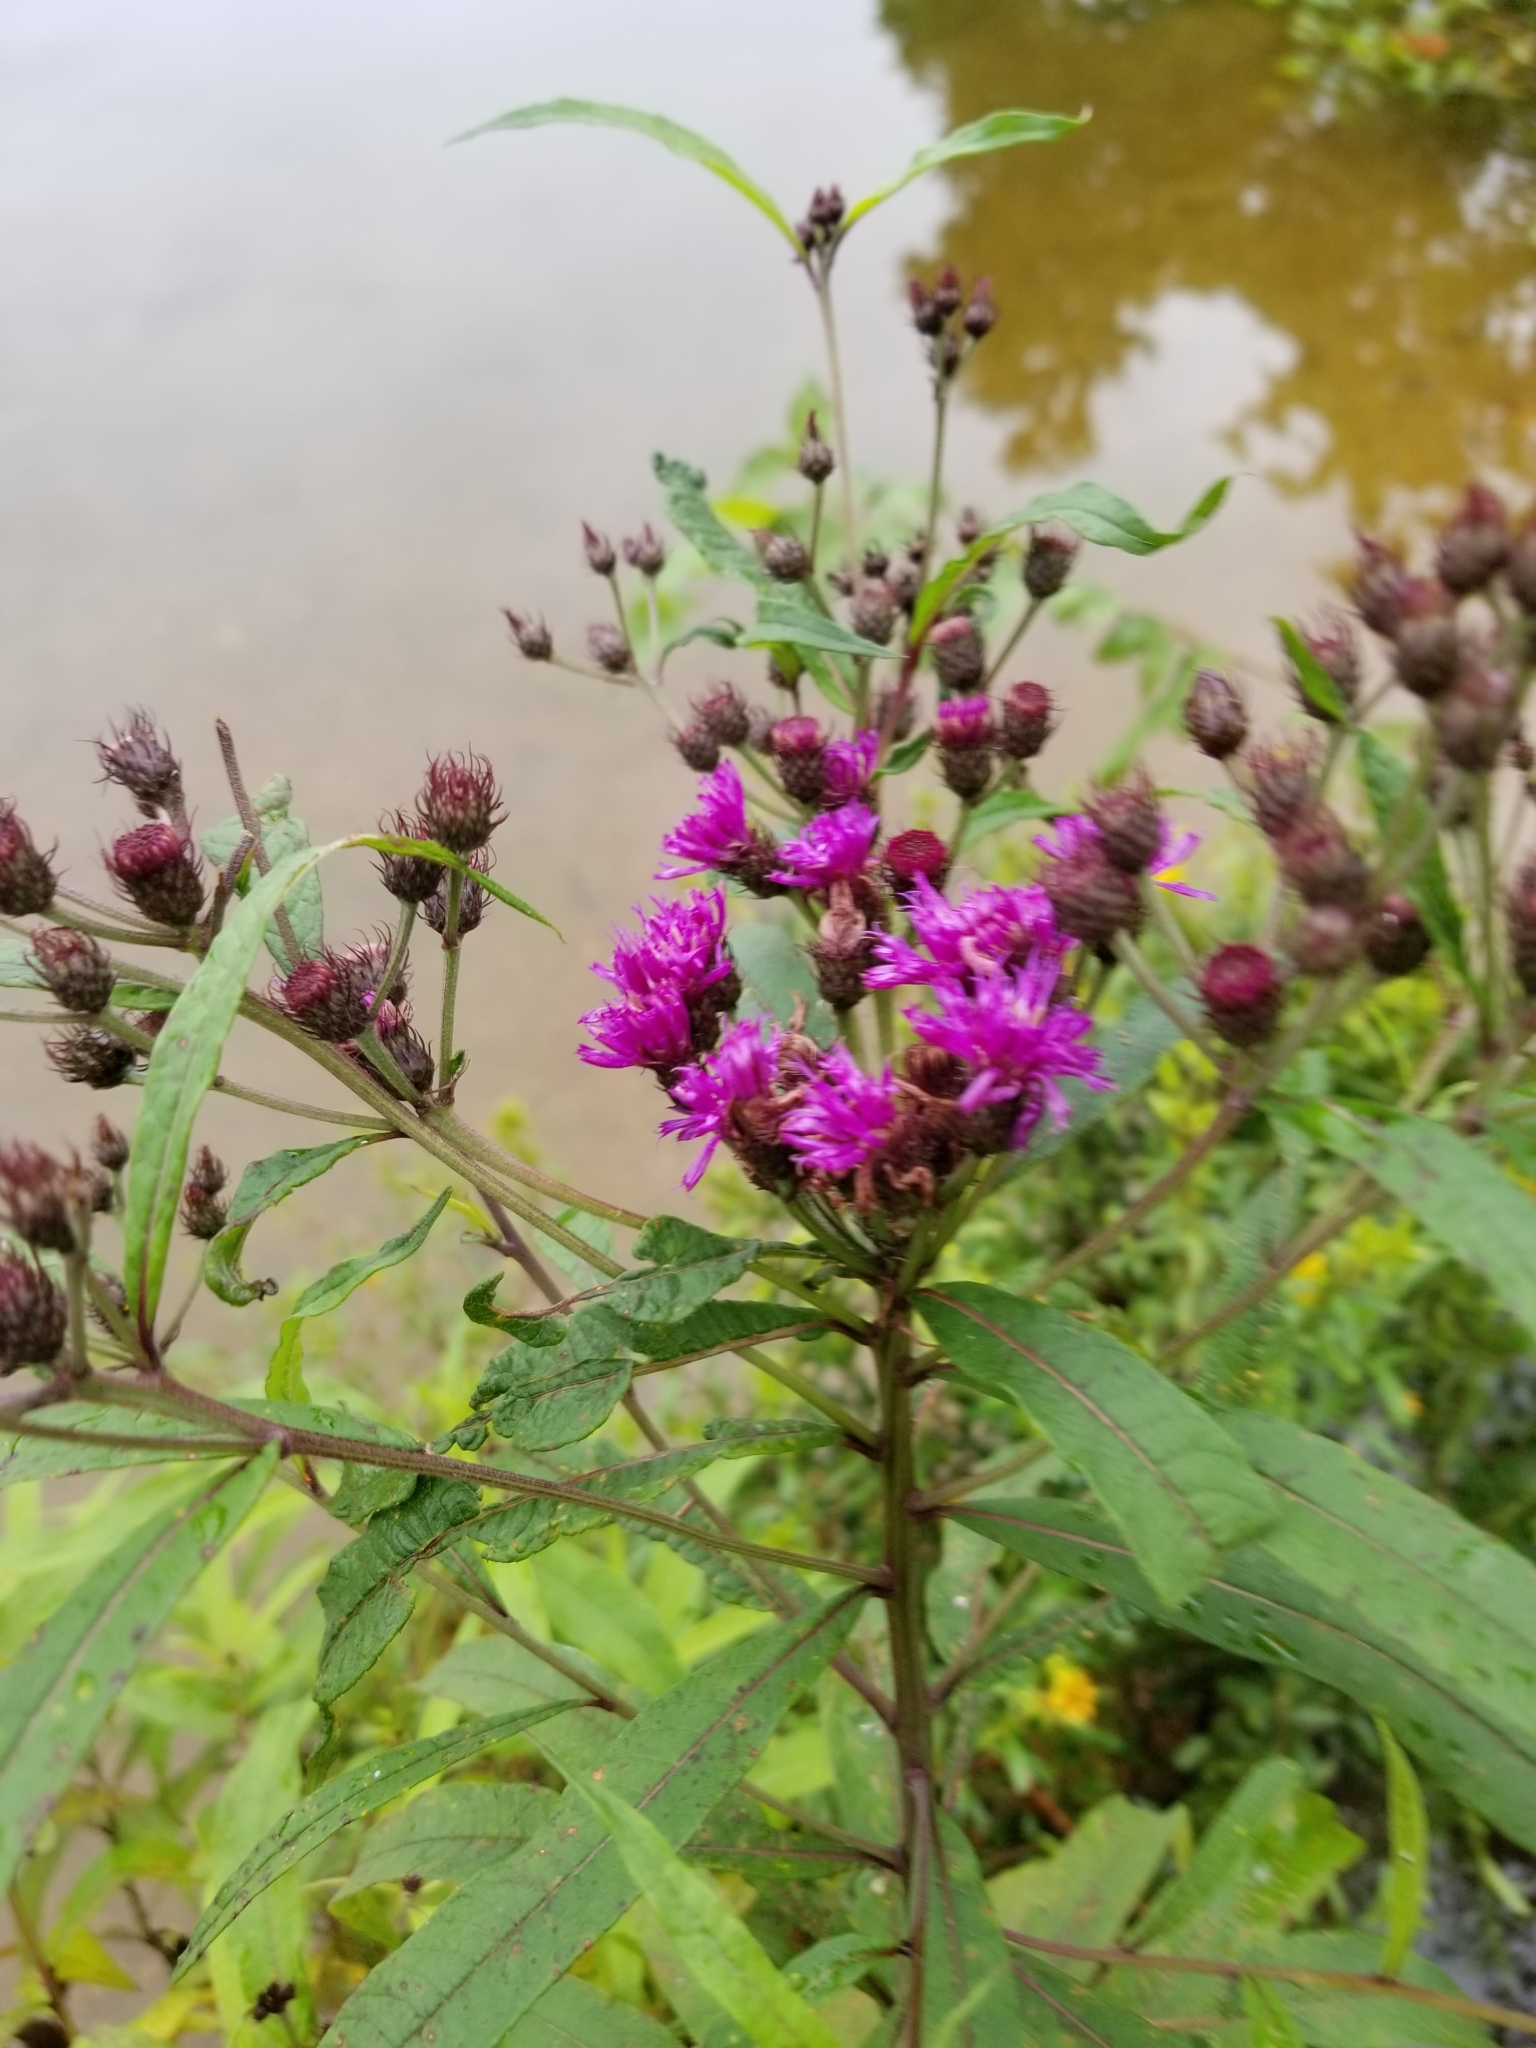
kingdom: Plantae
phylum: Tracheophyta
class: Magnoliopsida
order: Asterales
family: Asteraceae
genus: Vernonia
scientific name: Vernonia noveboracensis
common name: New york ironweed
